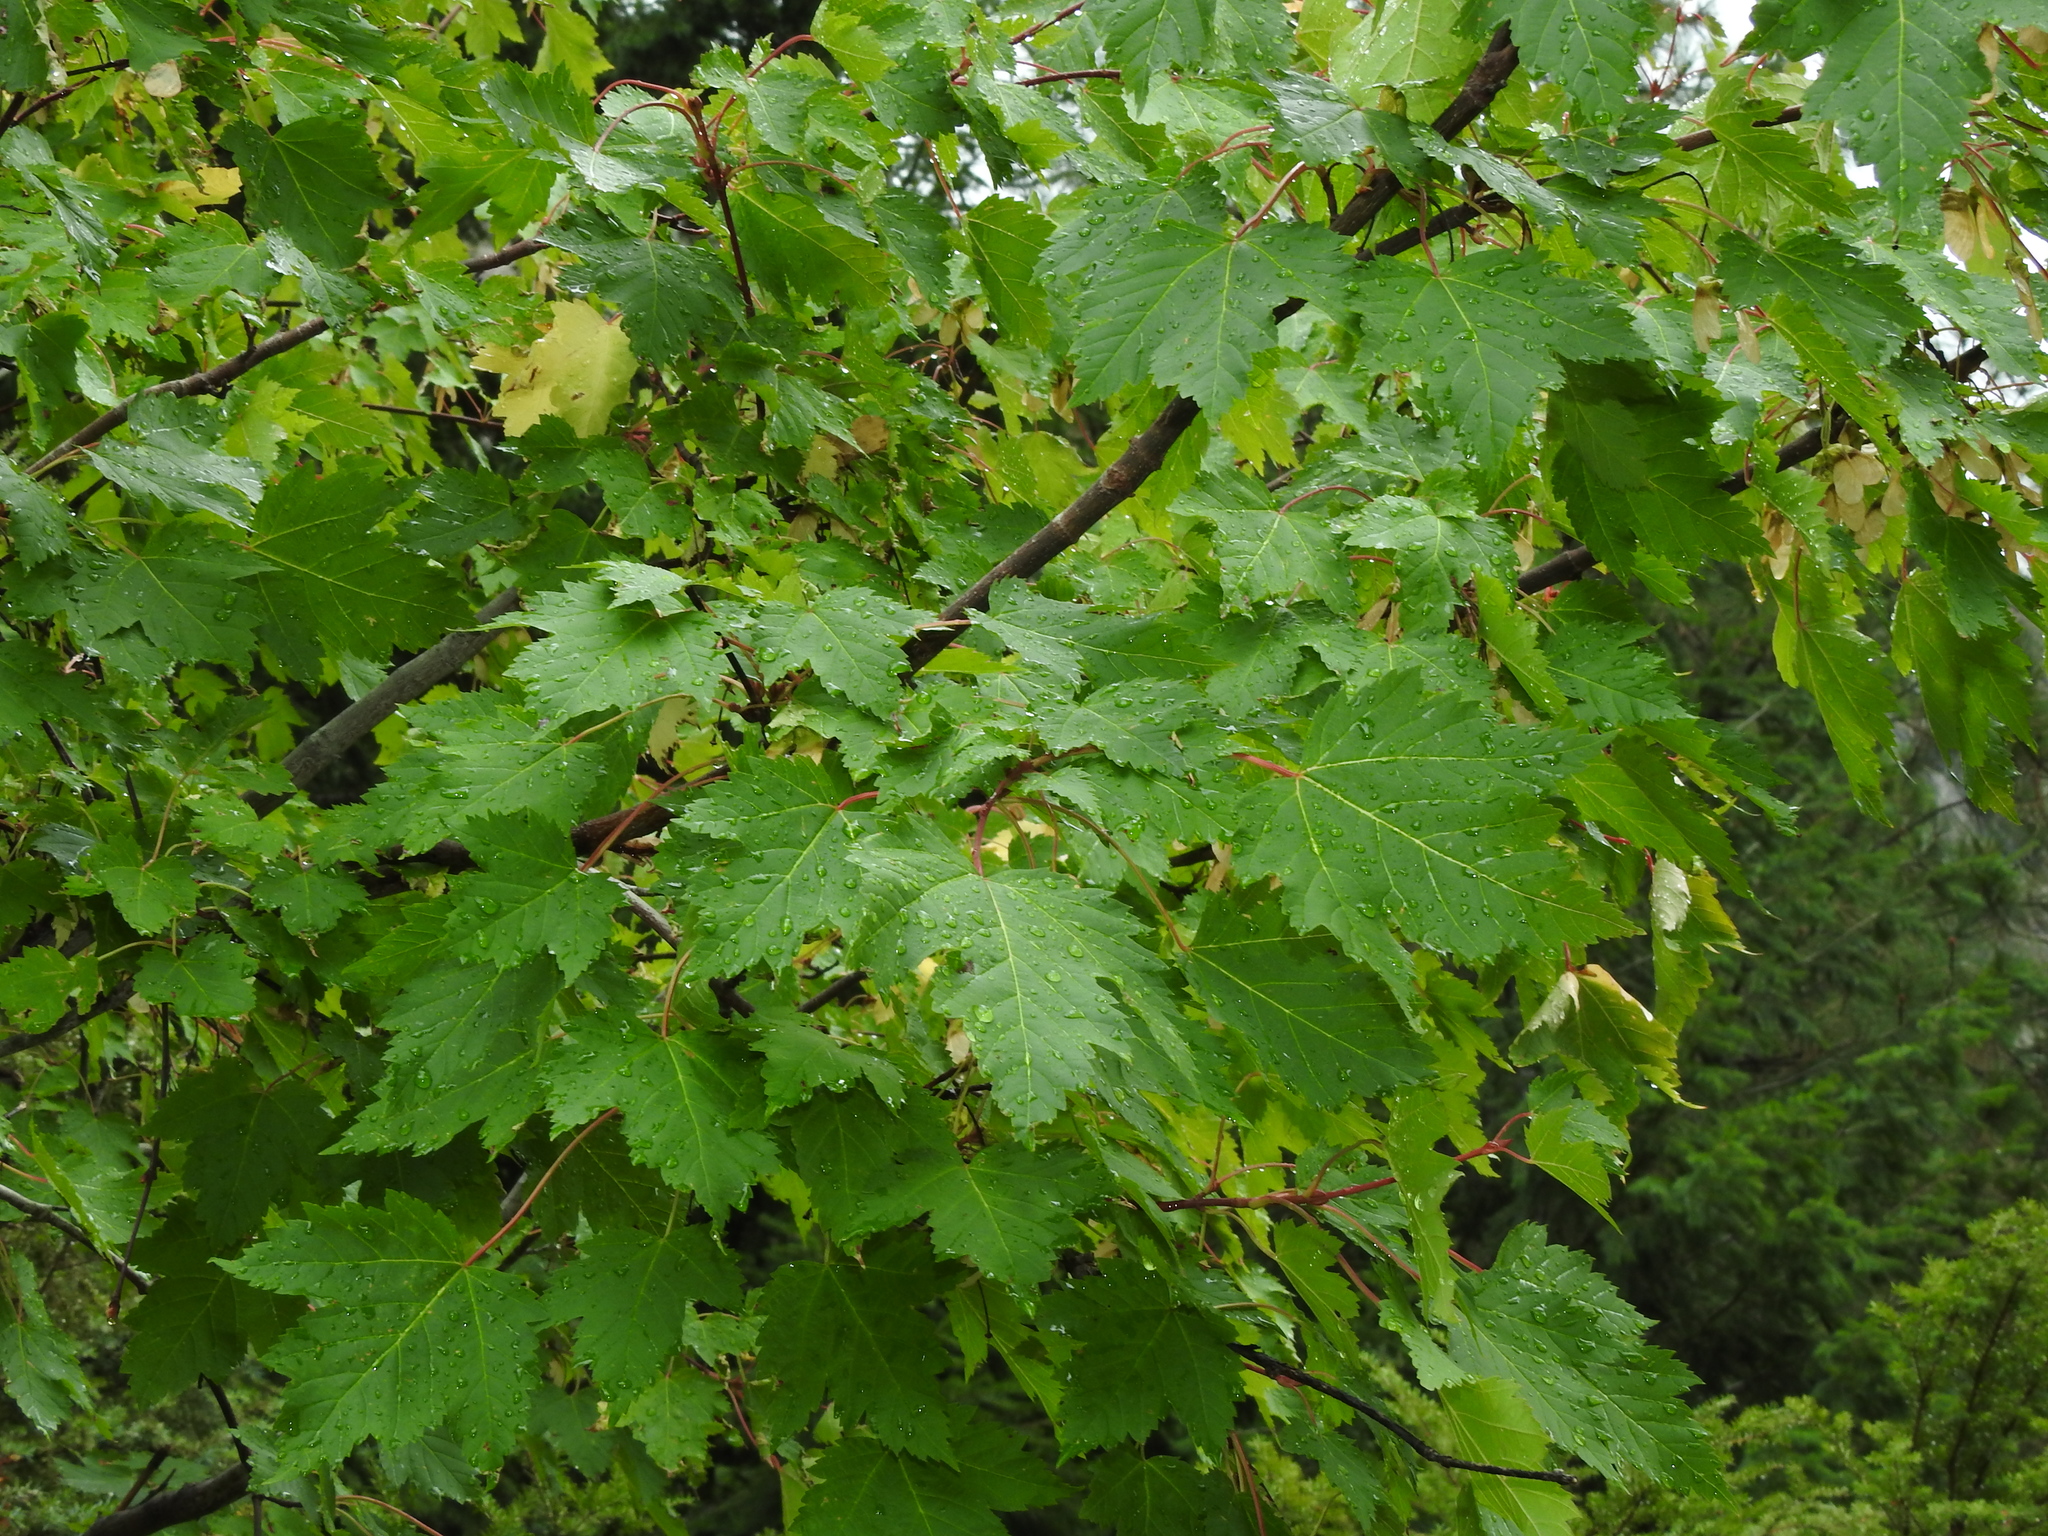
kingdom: Plantae
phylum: Tracheophyta
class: Magnoliopsida
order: Sapindales
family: Sapindaceae
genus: Acer
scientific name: Acer glabrum
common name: Rocky mountain maple
